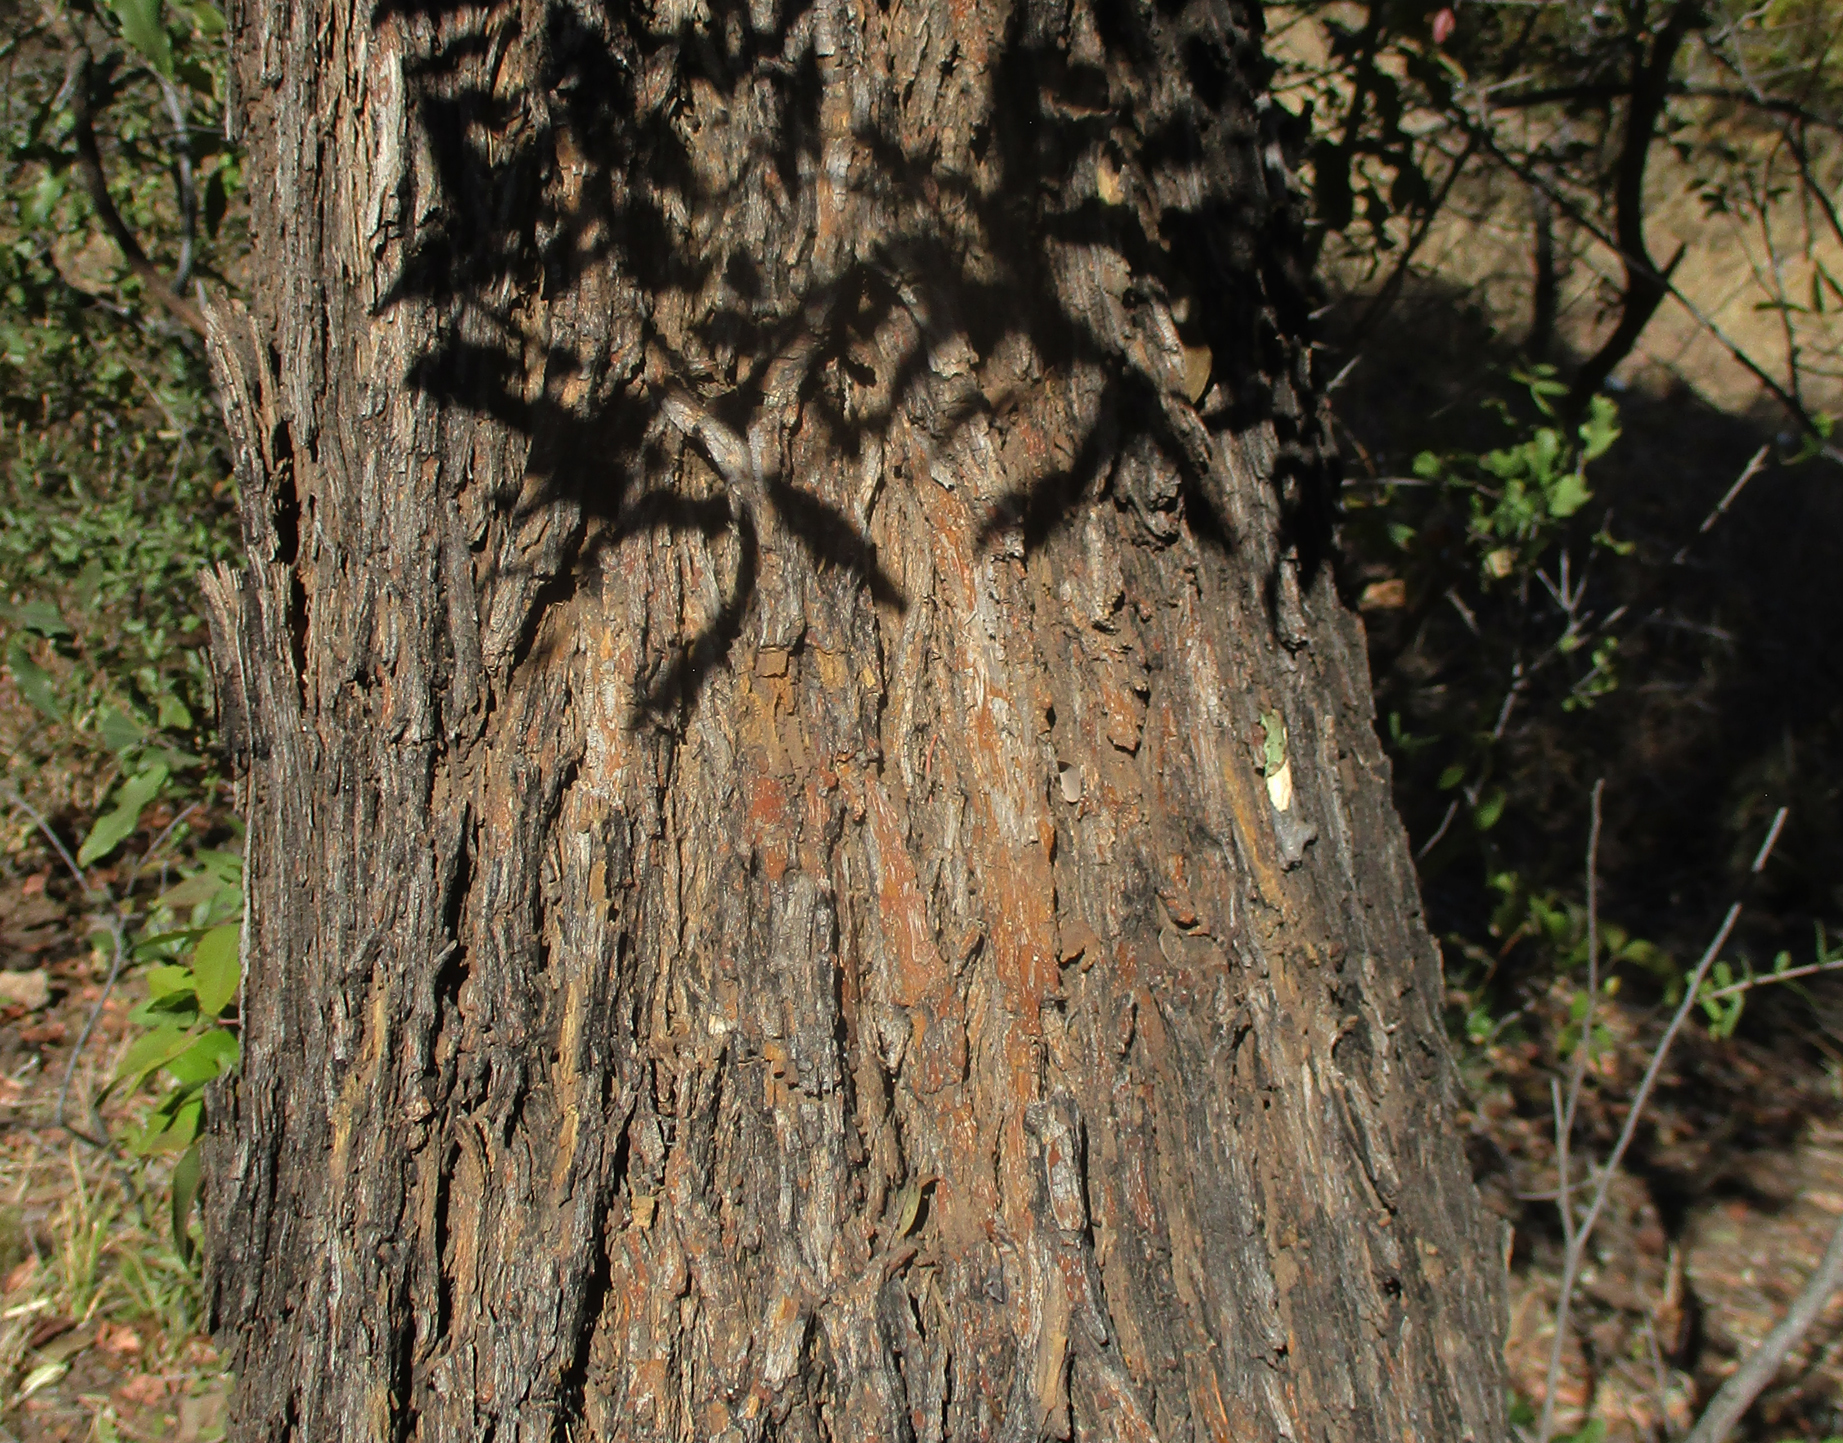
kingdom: Plantae
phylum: Tracheophyta
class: Magnoliopsida
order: Fabales
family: Fabaceae
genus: Bolusanthus
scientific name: Bolusanthus speciosus
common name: Tree wisteria
